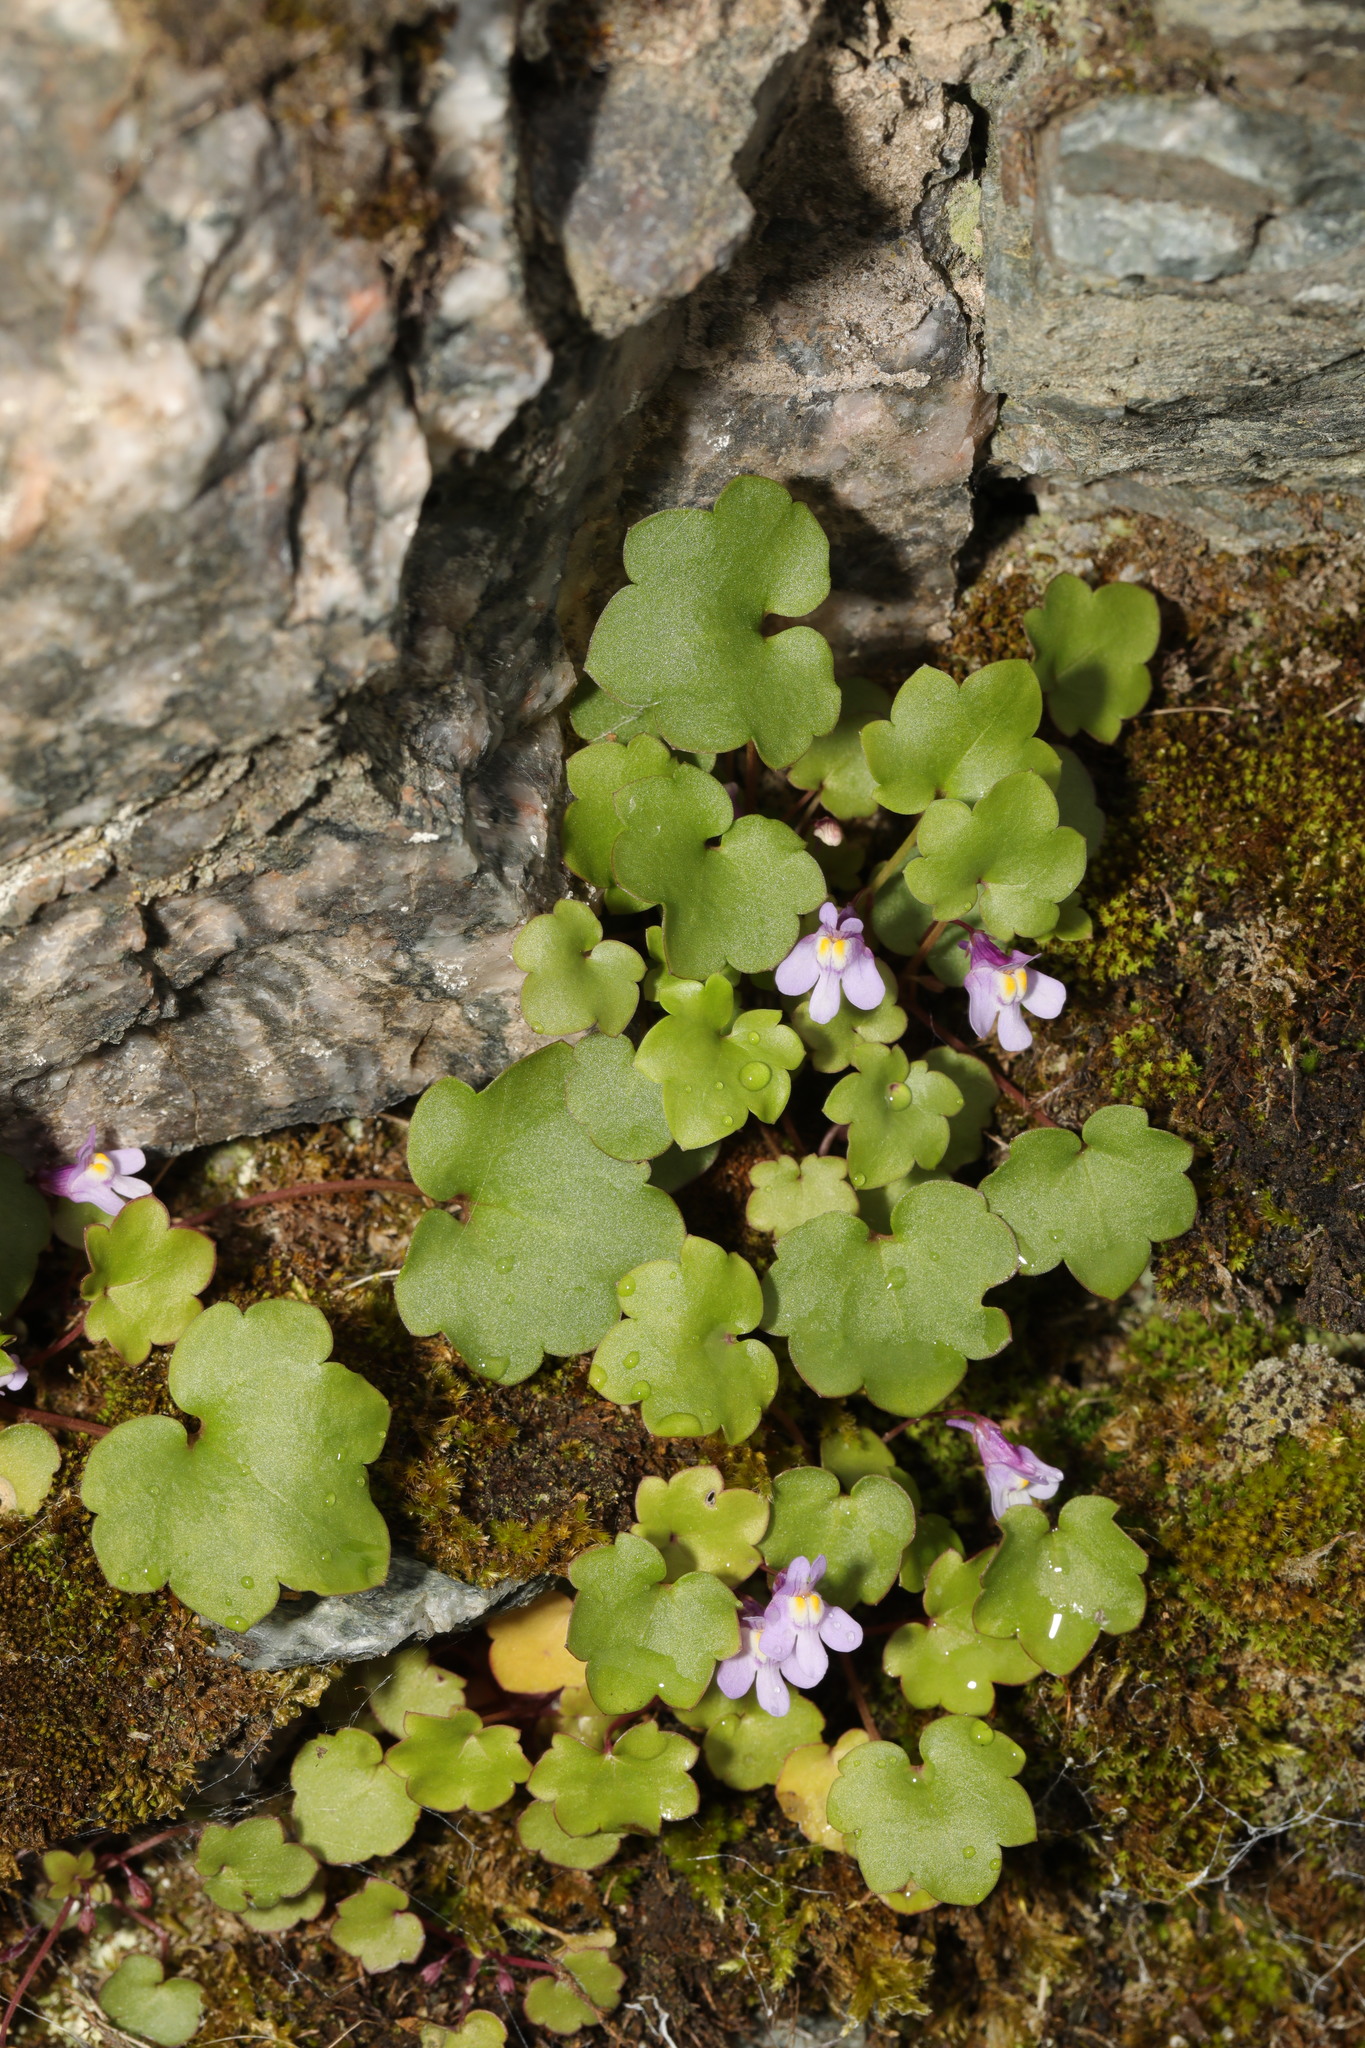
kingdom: Plantae
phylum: Tracheophyta
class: Magnoliopsida
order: Lamiales
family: Plantaginaceae
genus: Cymbalaria
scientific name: Cymbalaria muralis
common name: Ivy-leaved toadflax
